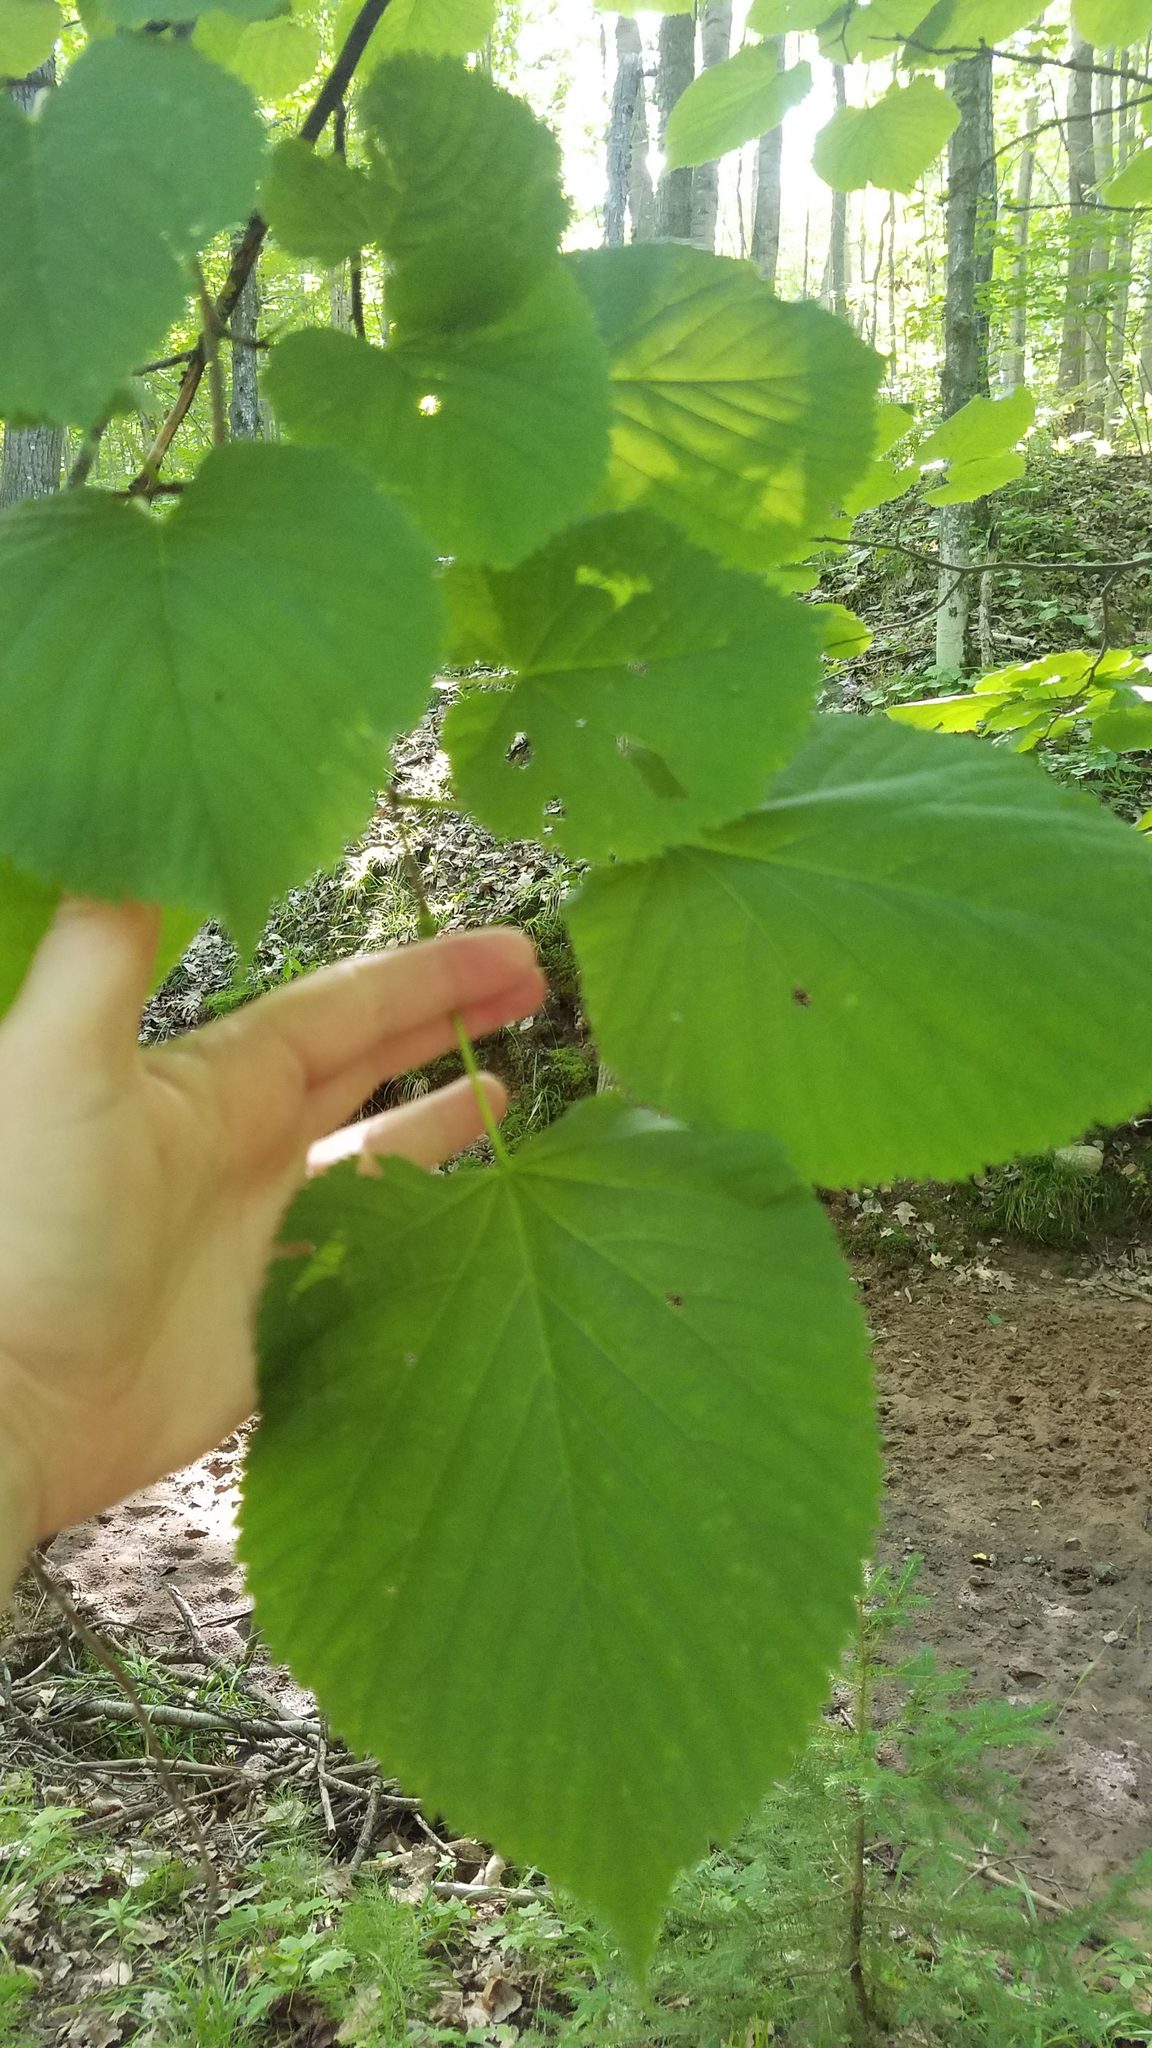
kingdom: Plantae
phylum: Tracheophyta
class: Magnoliopsida
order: Malvales
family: Malvaceae
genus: Tilia
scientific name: Tilia americana
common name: Basswood
